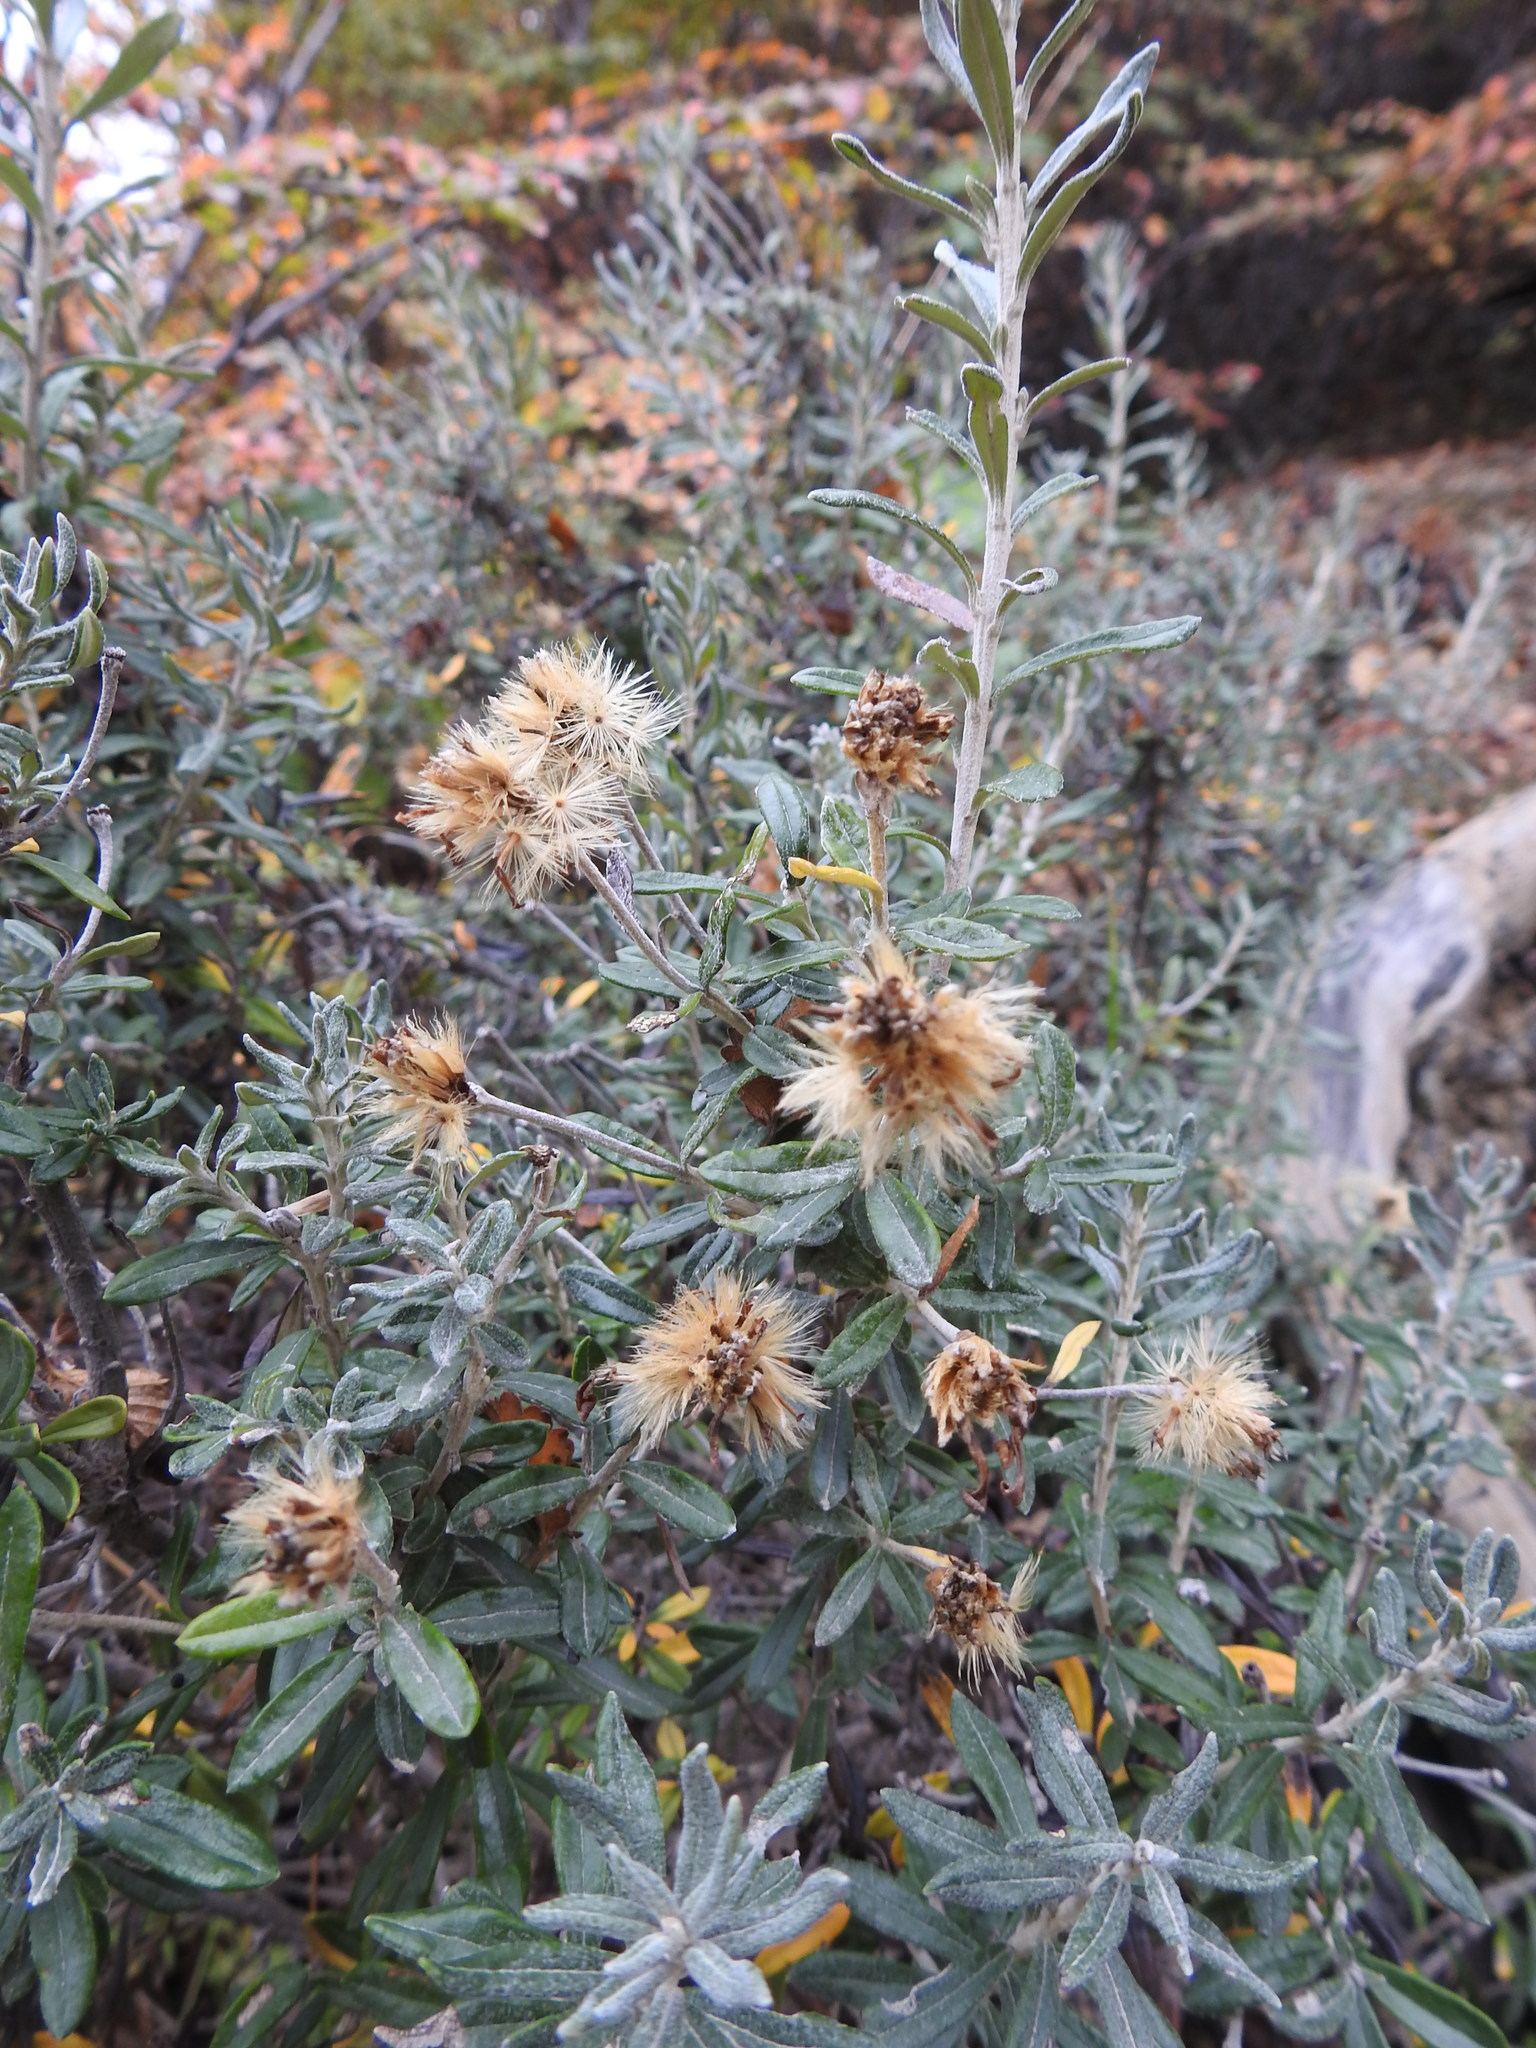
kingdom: Plantae
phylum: Tracheophyta
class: Magnoliopsida
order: Asterales
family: Asteraceae
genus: Chiliotrichum
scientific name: Chiliotrichum diffusum
